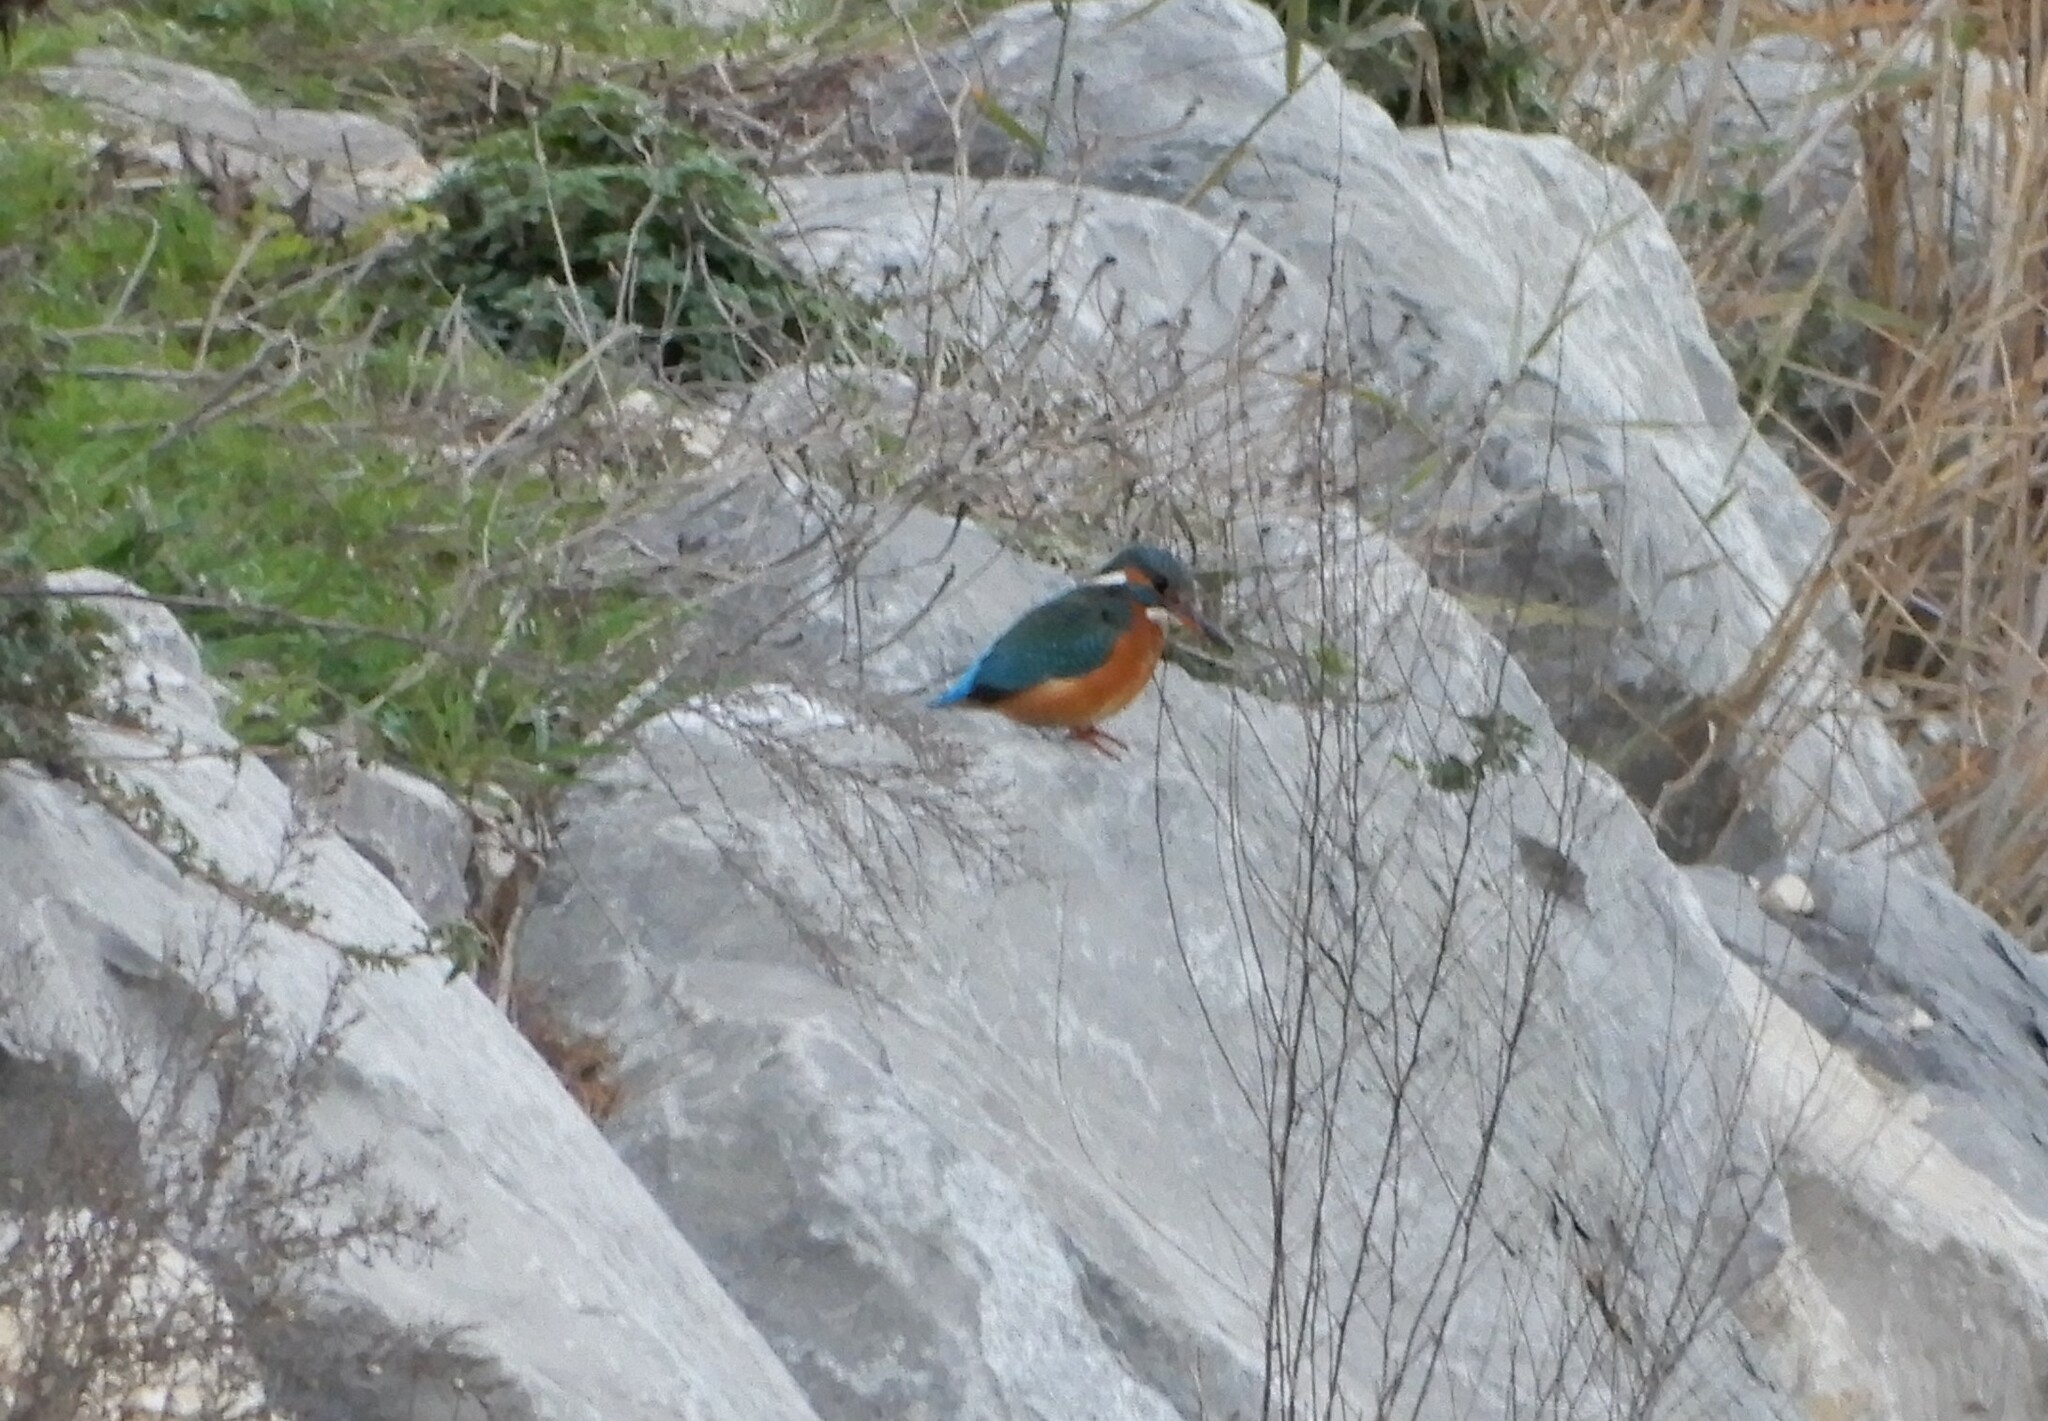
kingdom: Animalia
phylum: Chordata
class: Aves
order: Coraciiformes
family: Alcedinidae
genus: Alcedo
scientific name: Alcedo atthis
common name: Common kingfisher
